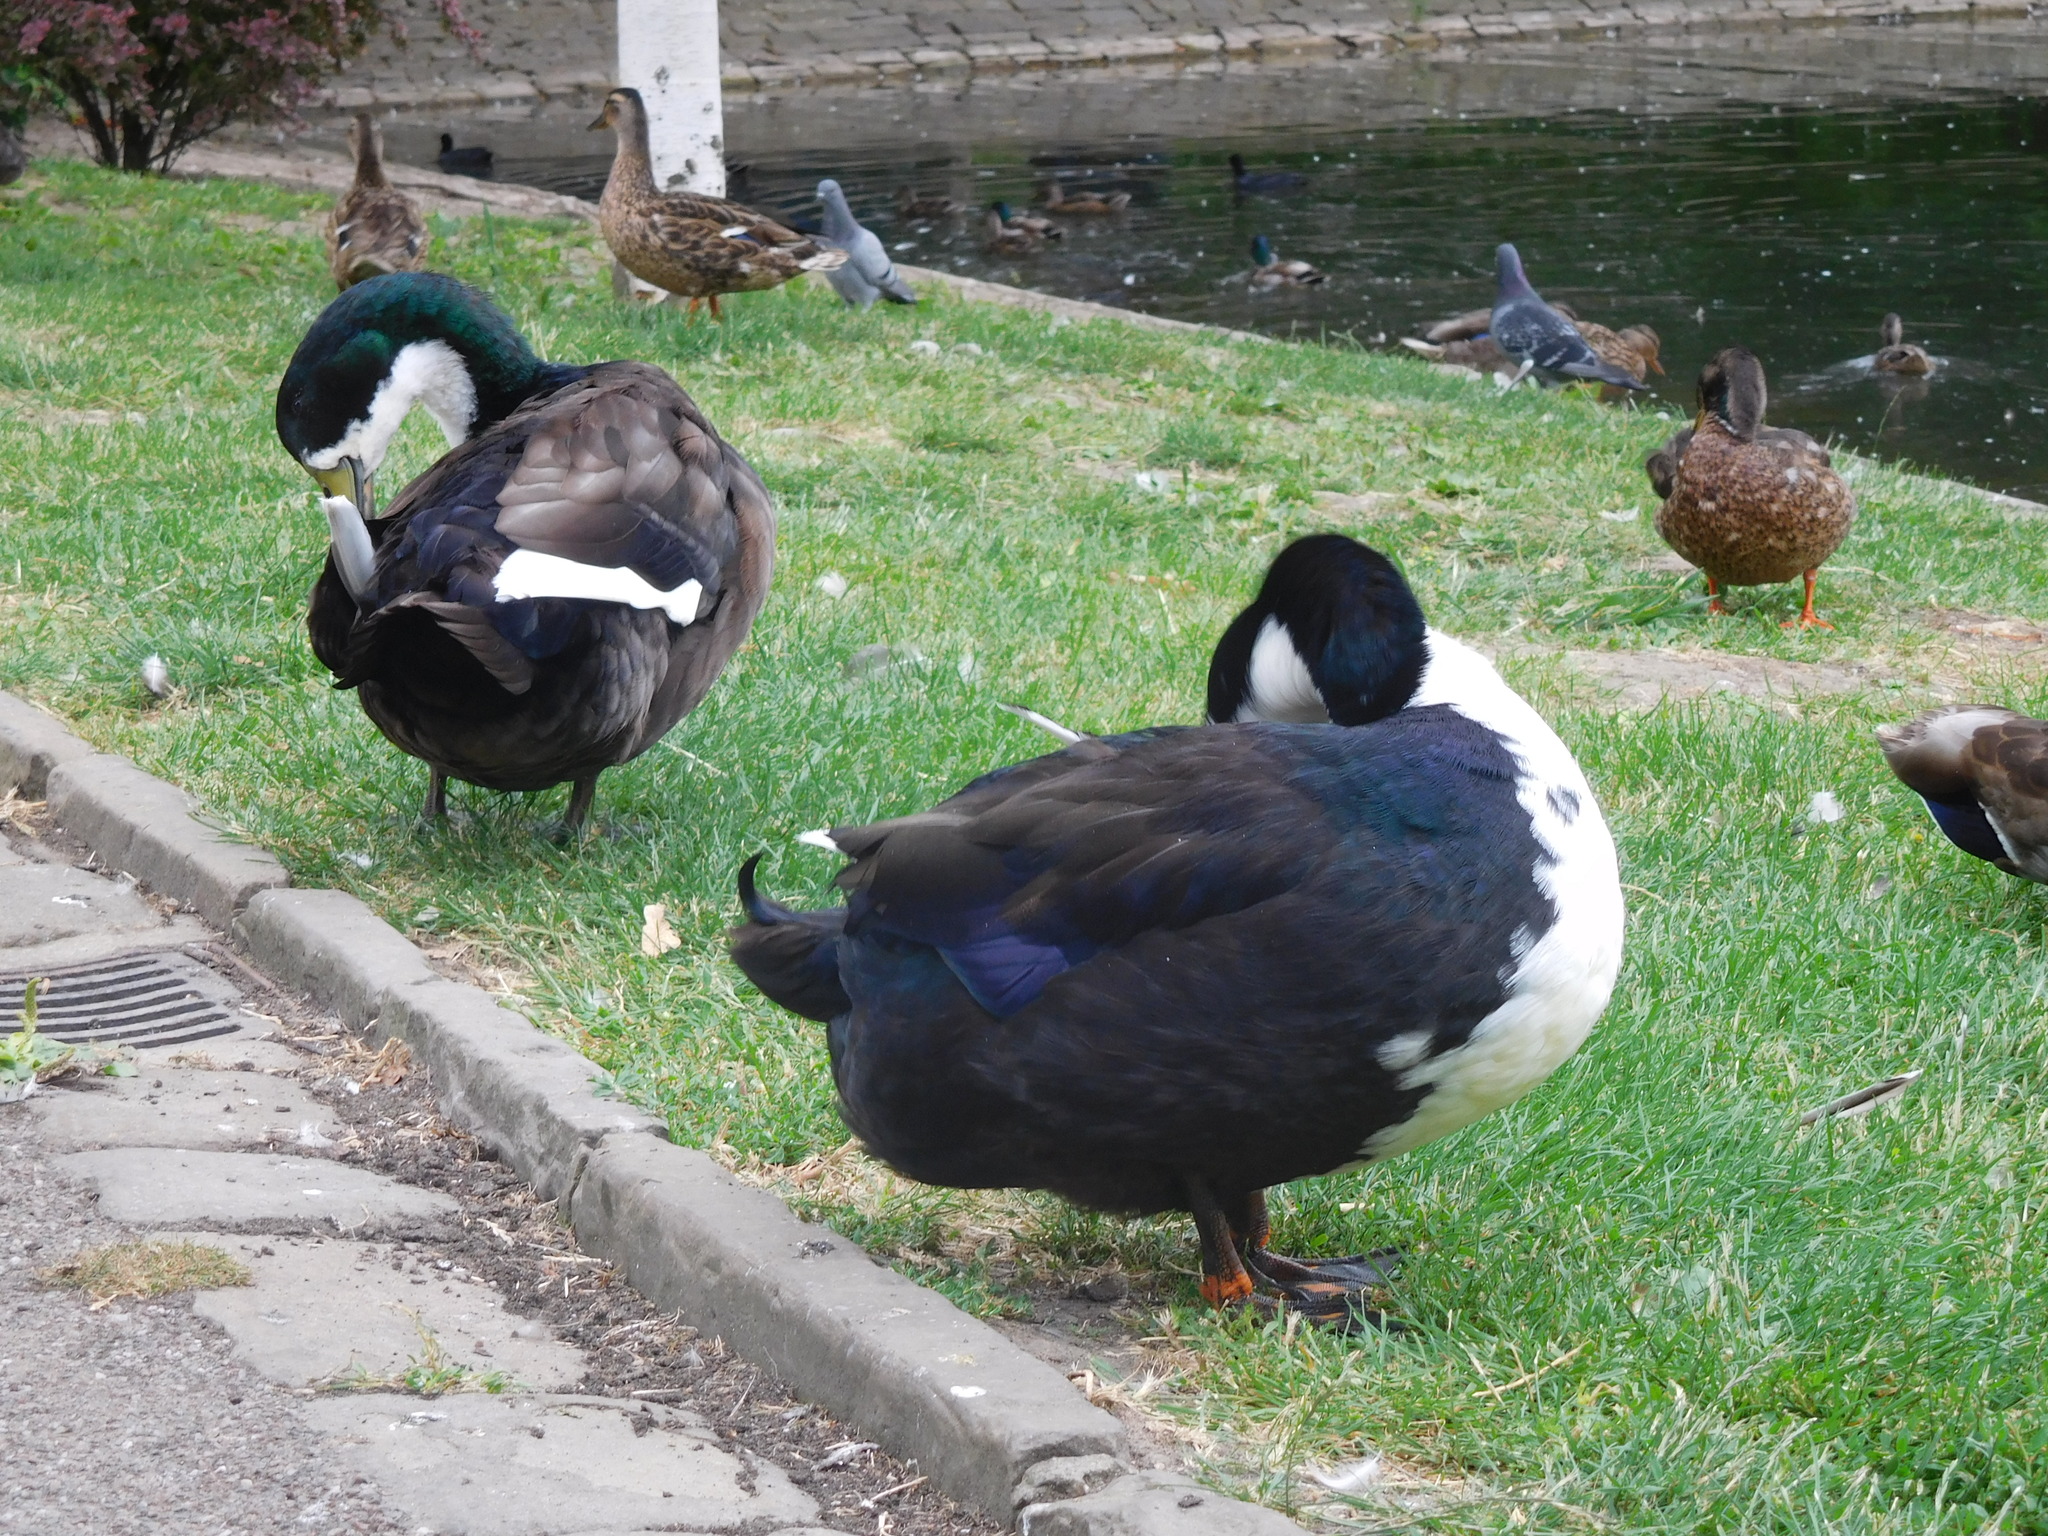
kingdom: Animalia
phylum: Chordata
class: Aves
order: Anseriformes
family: Anatidae
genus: Anas
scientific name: Anas platyrhynchos
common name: Mallard
